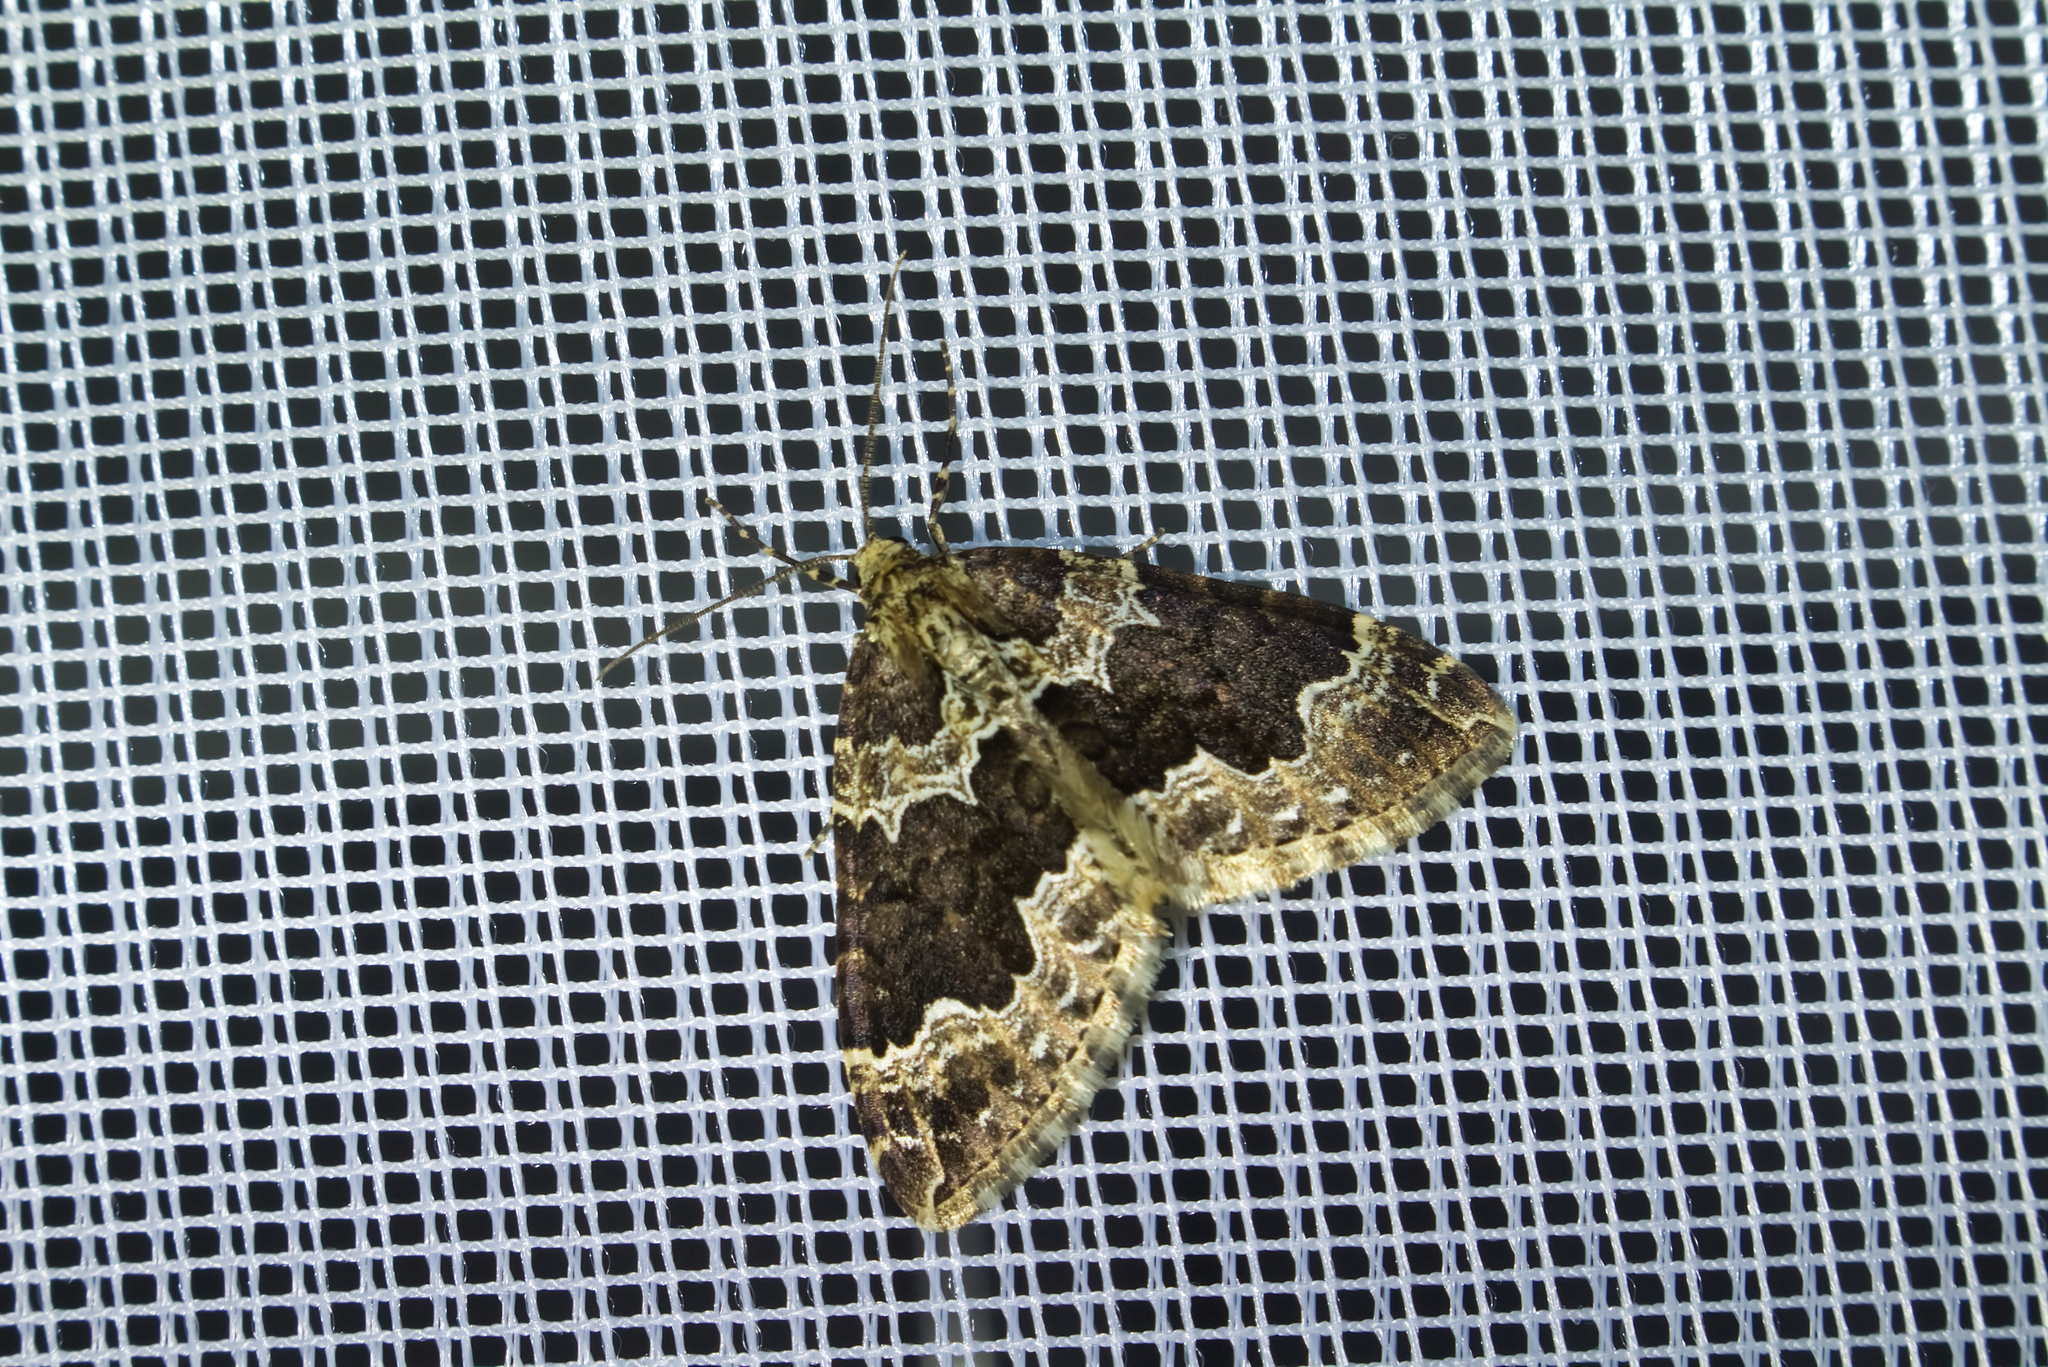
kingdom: Animalia
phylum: Arthropoda
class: Insecta
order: Lepidoptera
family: Geometridae
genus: Lampropteryx
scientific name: Lampropteryx suffumata
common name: Water carpet
